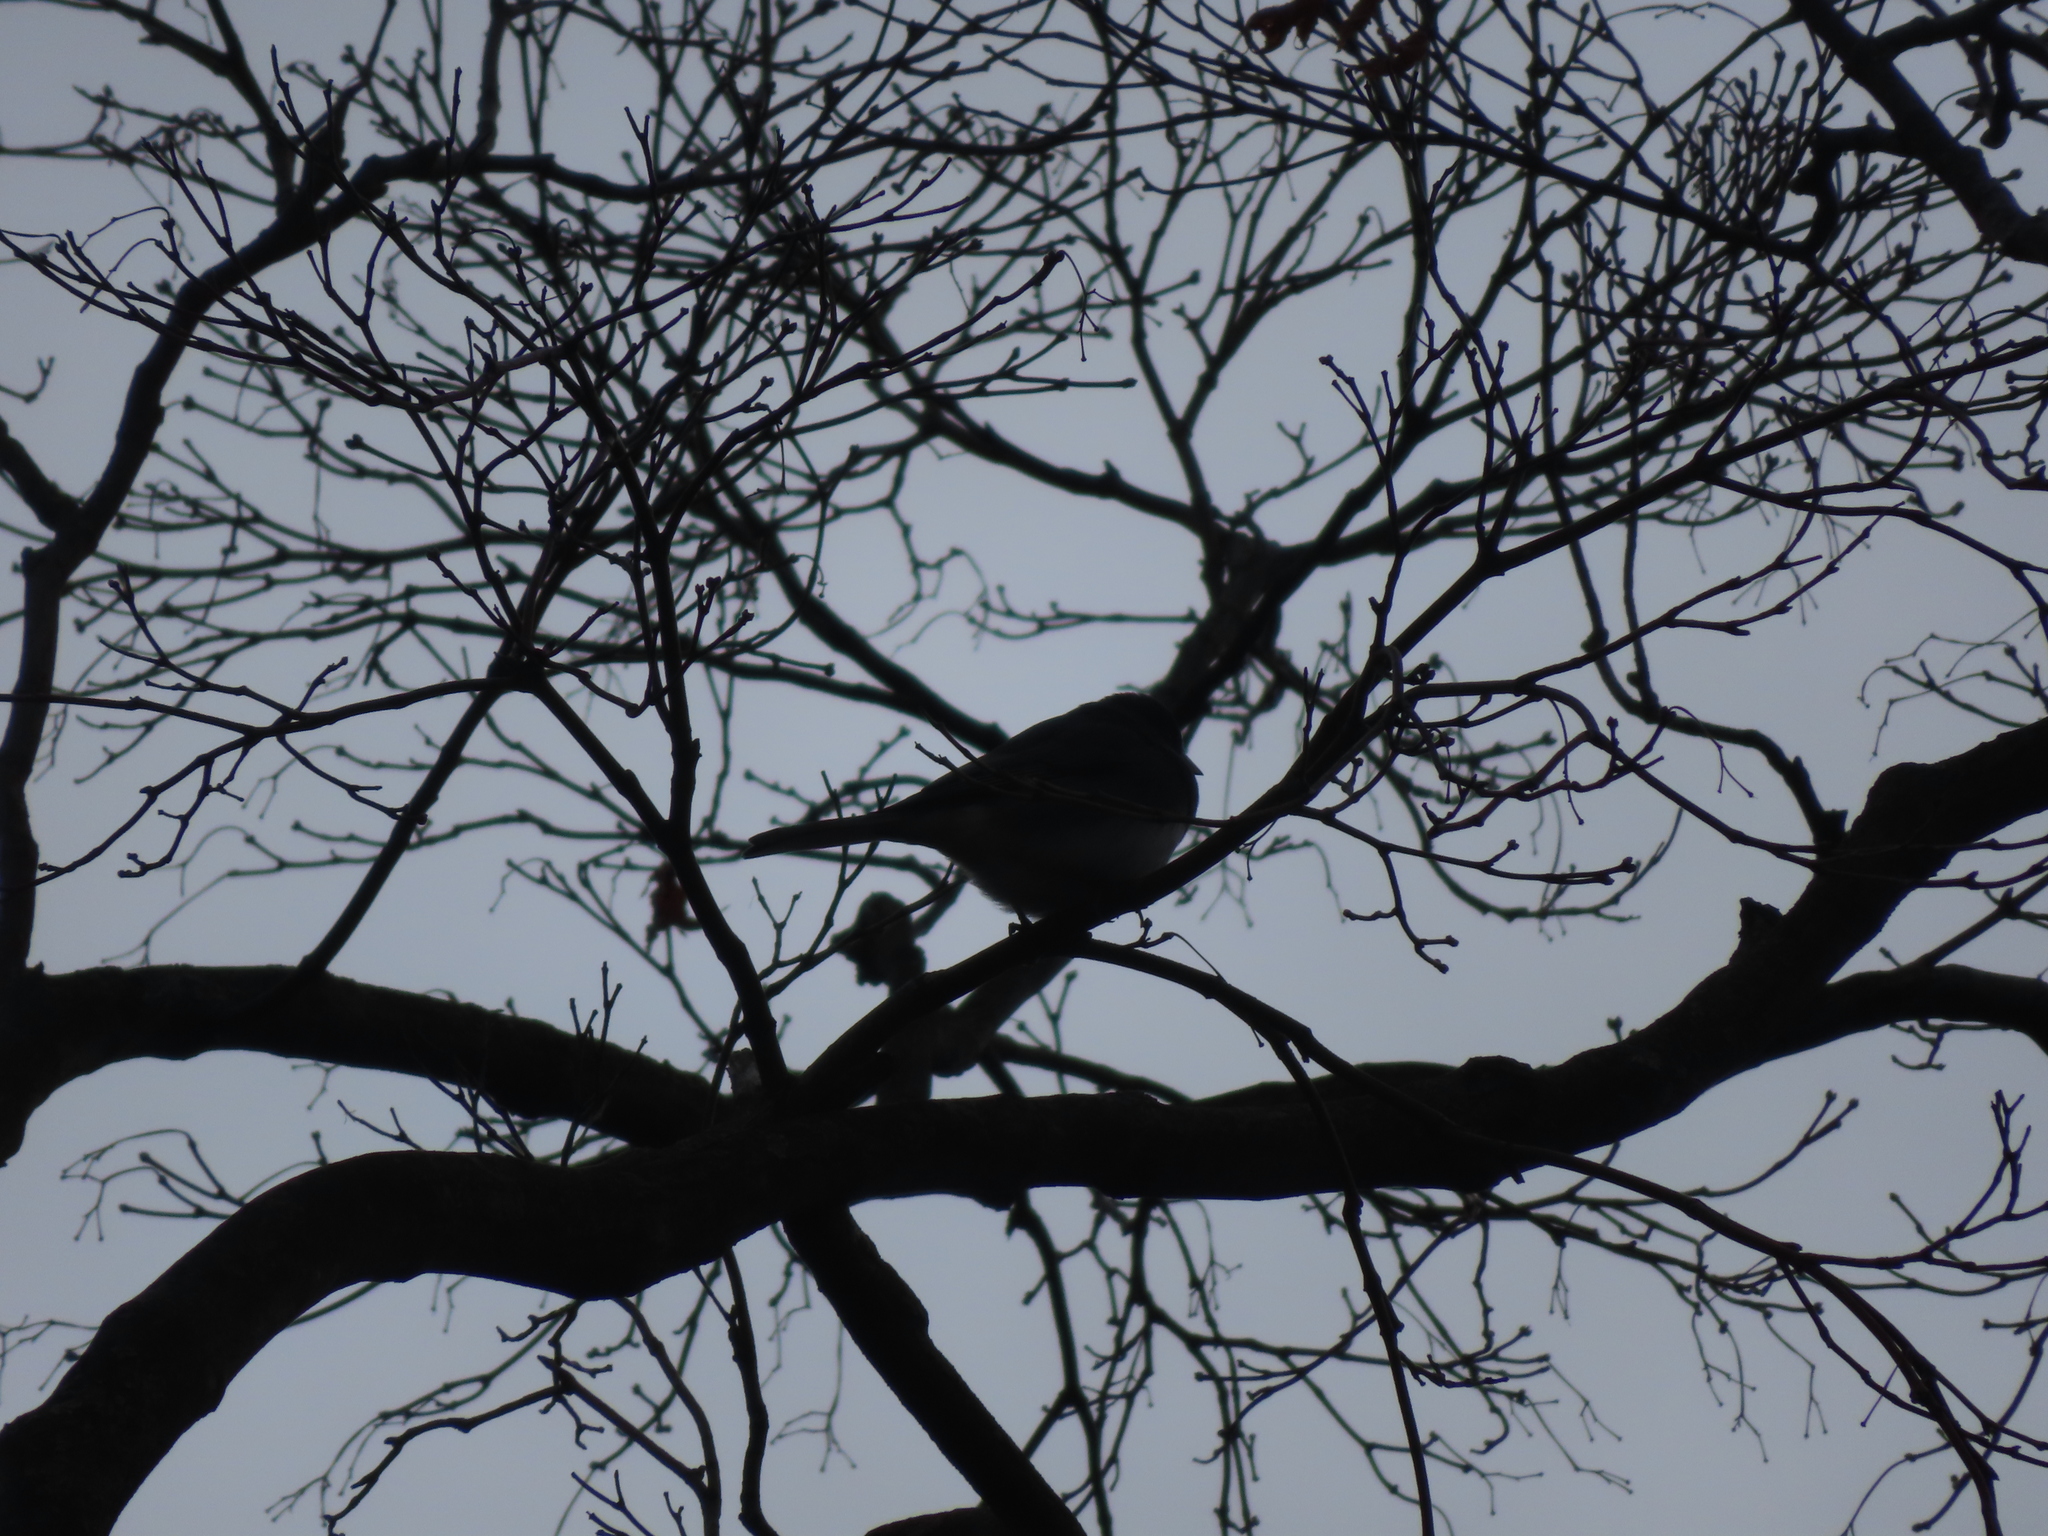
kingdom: Animalia
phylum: Chordata
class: Aves
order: Passeriformes
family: Passerellidae
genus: Junco
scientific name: Junco hyemalis
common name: Dark-eyed junco
